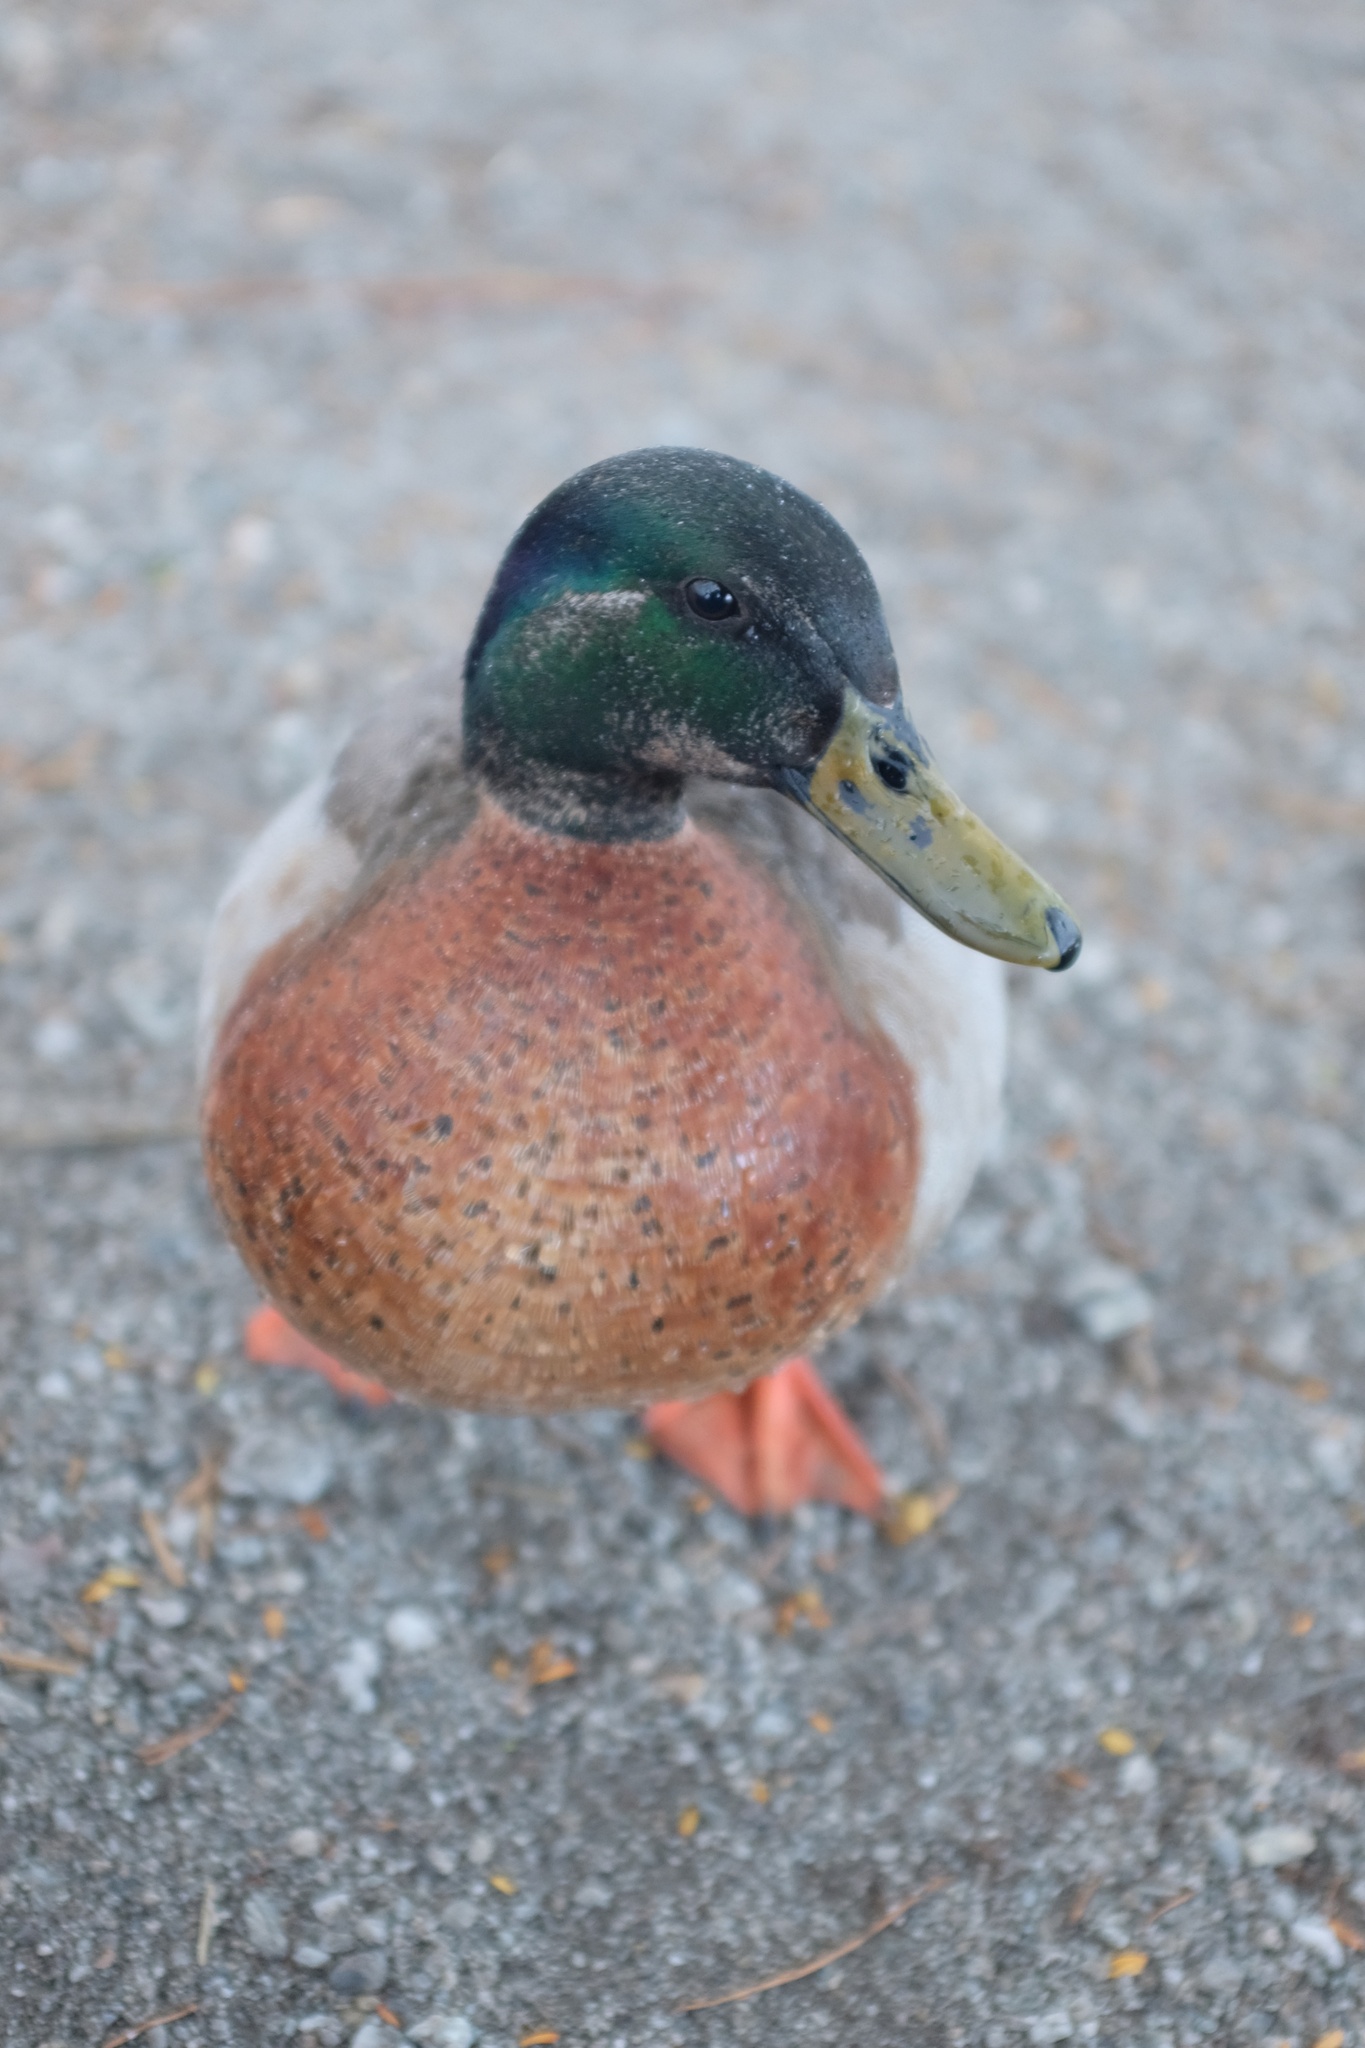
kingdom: Animalia
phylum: Chordata
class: Aves
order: Anseriformes
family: Anatidae
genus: Anas
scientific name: Anas platyrhynchos
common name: Mallard
